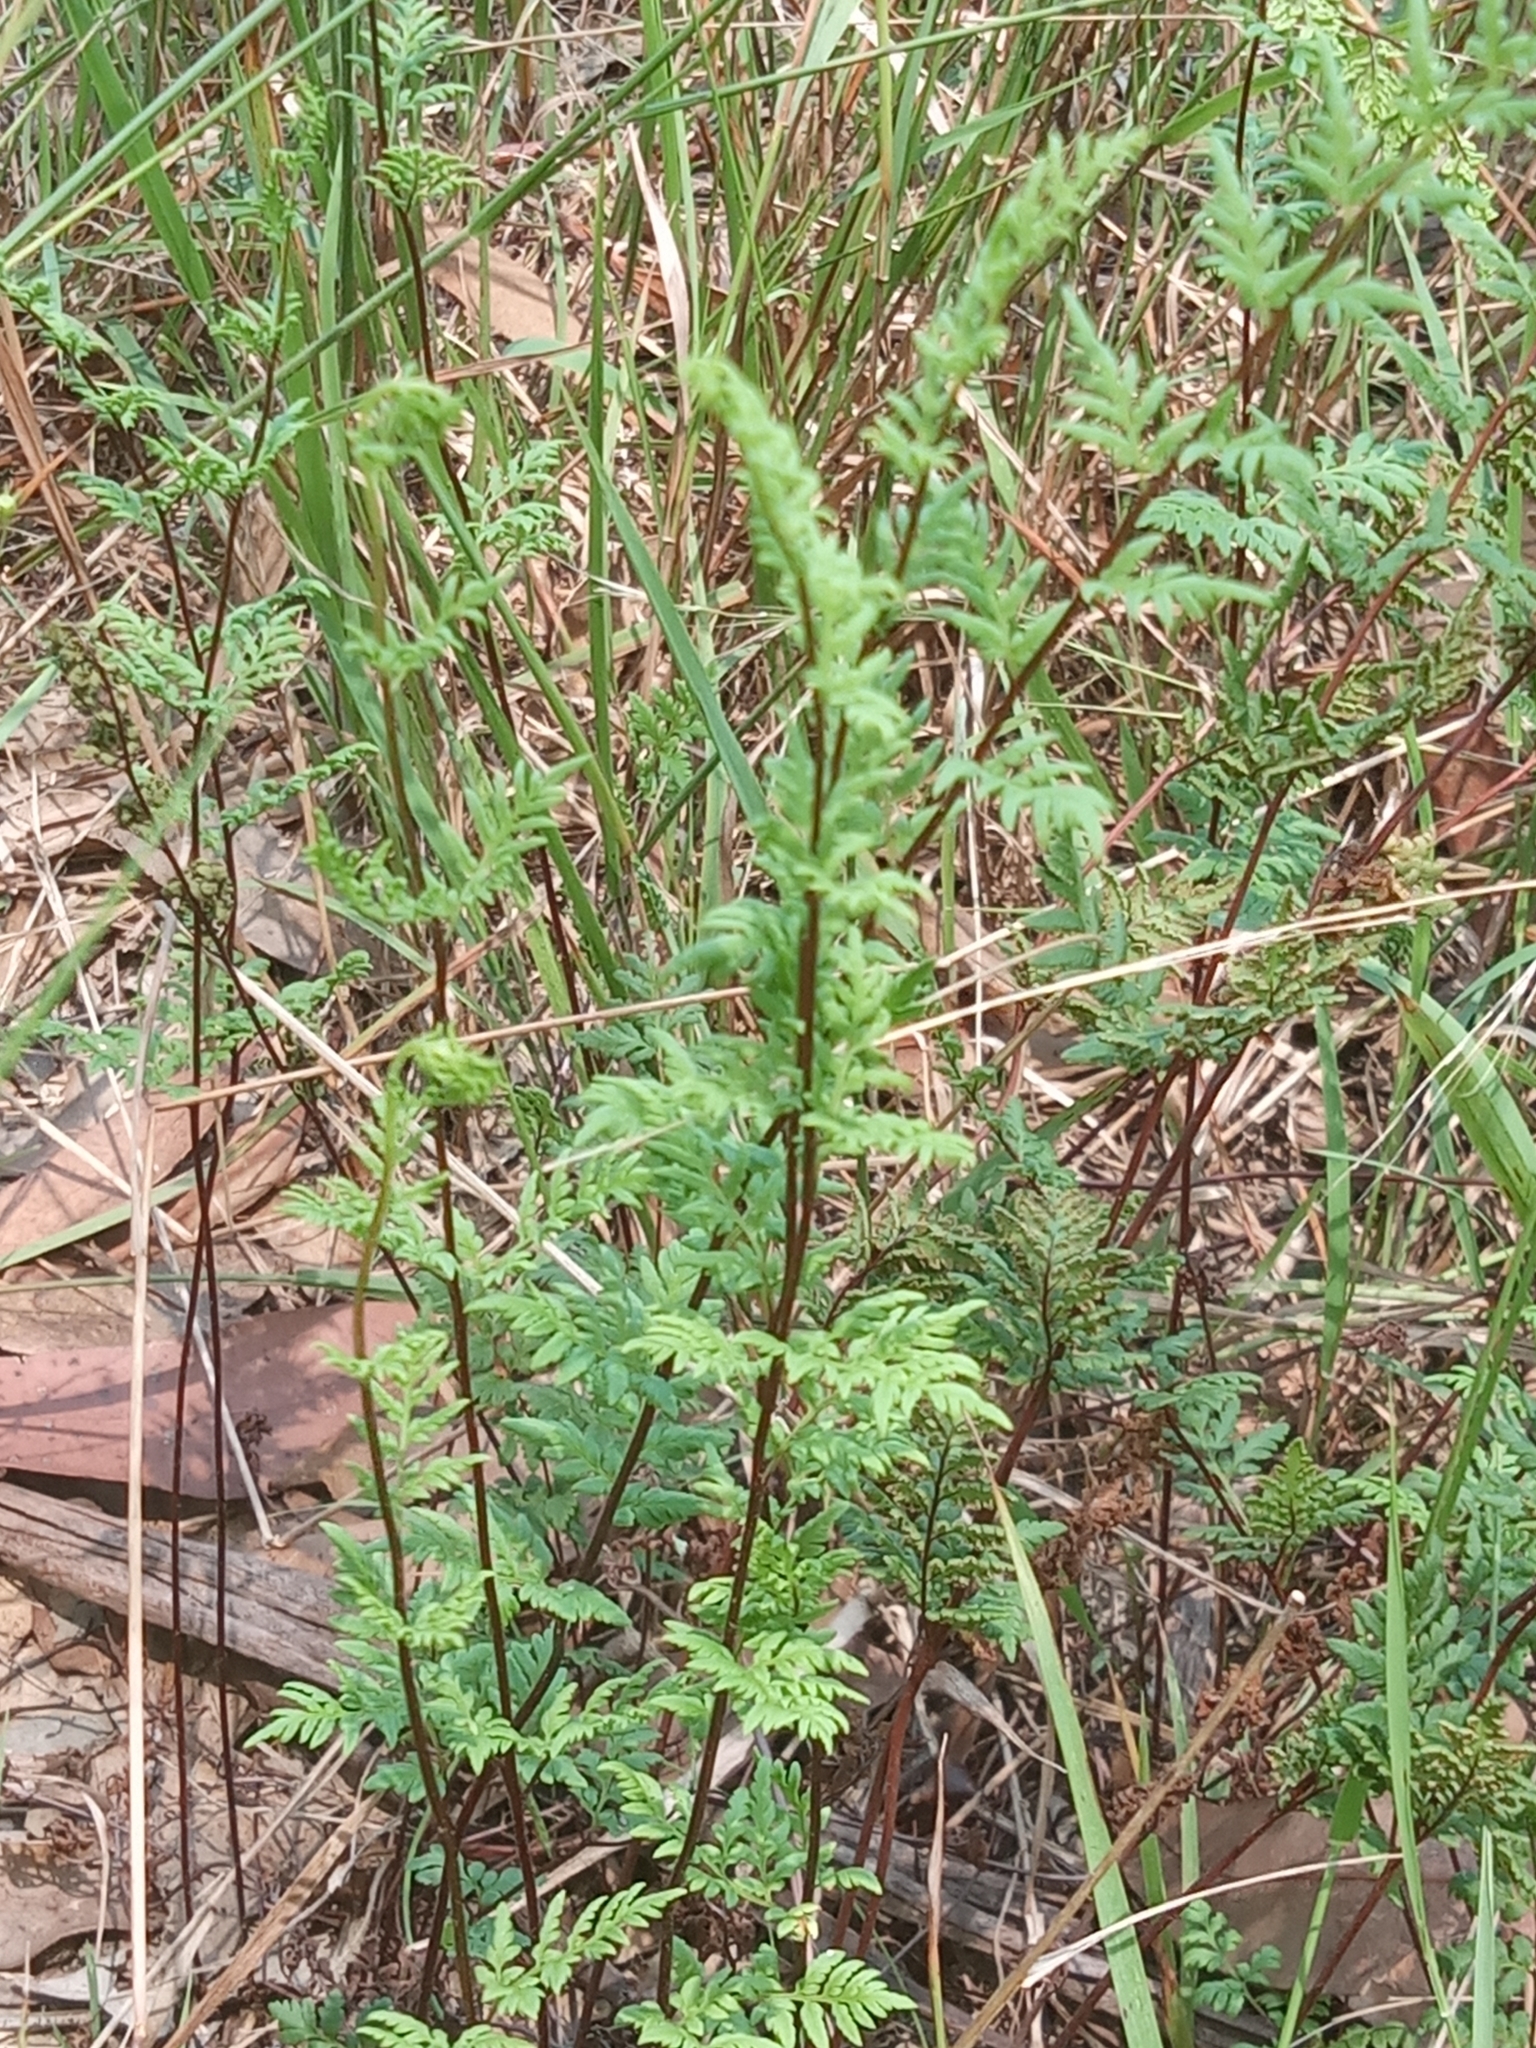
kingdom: Plantae
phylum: Tracheophyta
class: Polypodiopsida
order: Polypodiales
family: Pteridaceae
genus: Cheilanthes
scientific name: Cheilanthes sieberi
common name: Mulga fern
